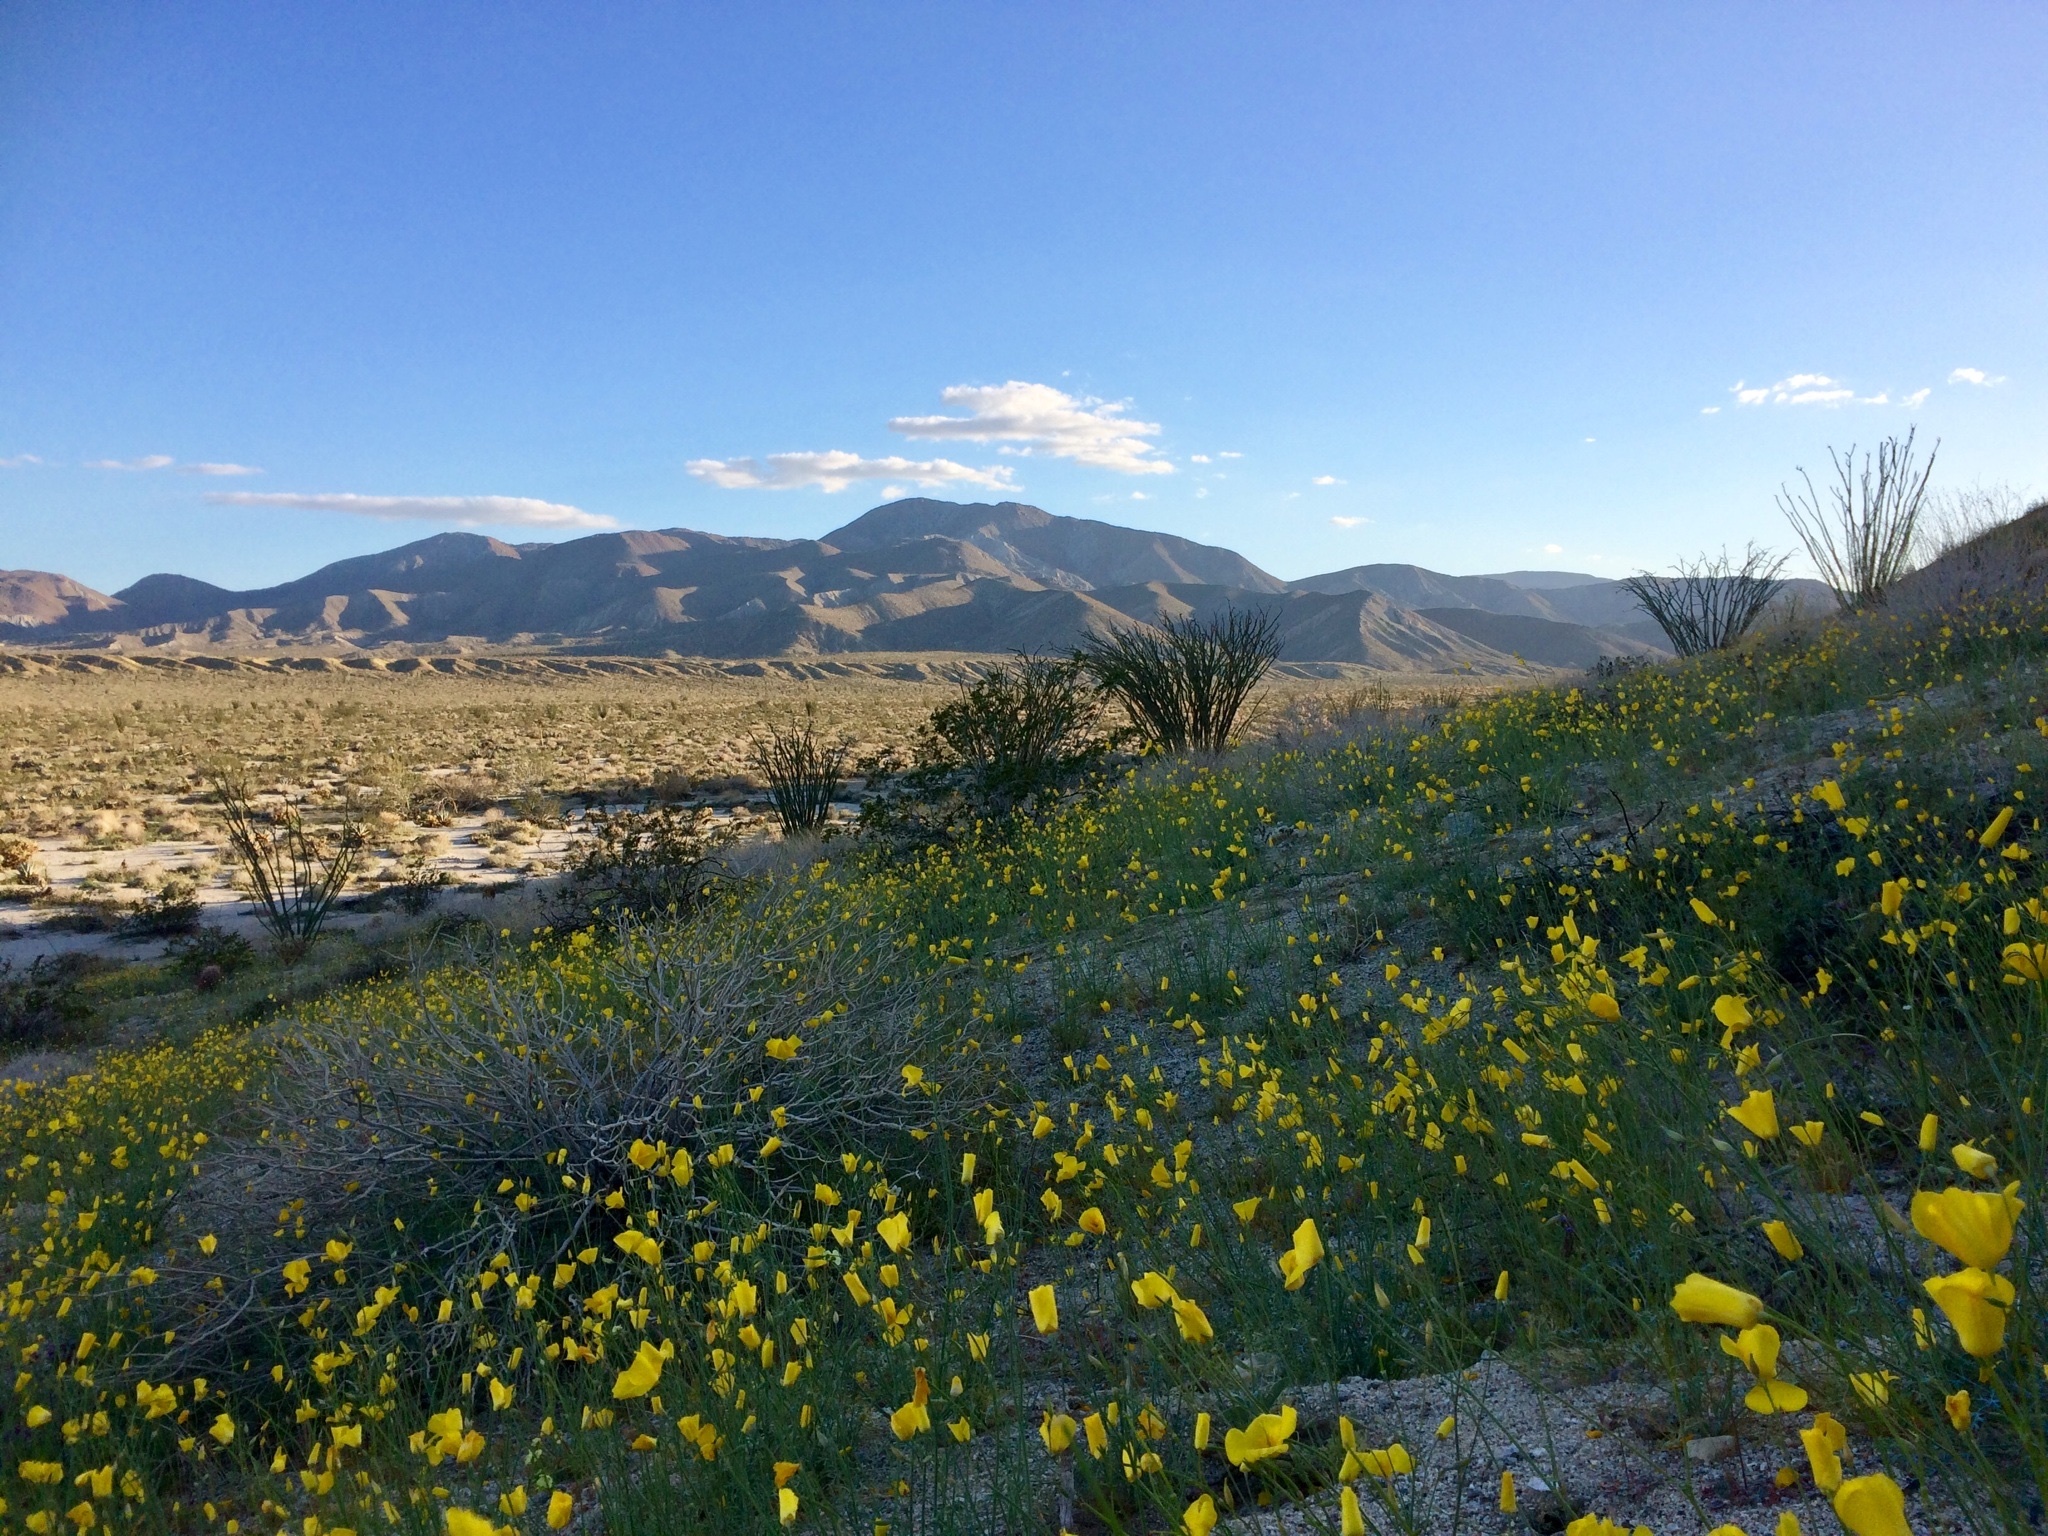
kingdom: Plantae
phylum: Tracheophyta
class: Magnoliopsida
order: Ranunculales
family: Papaveraceae
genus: Eschscholzia
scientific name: Eschscholzia parishii
